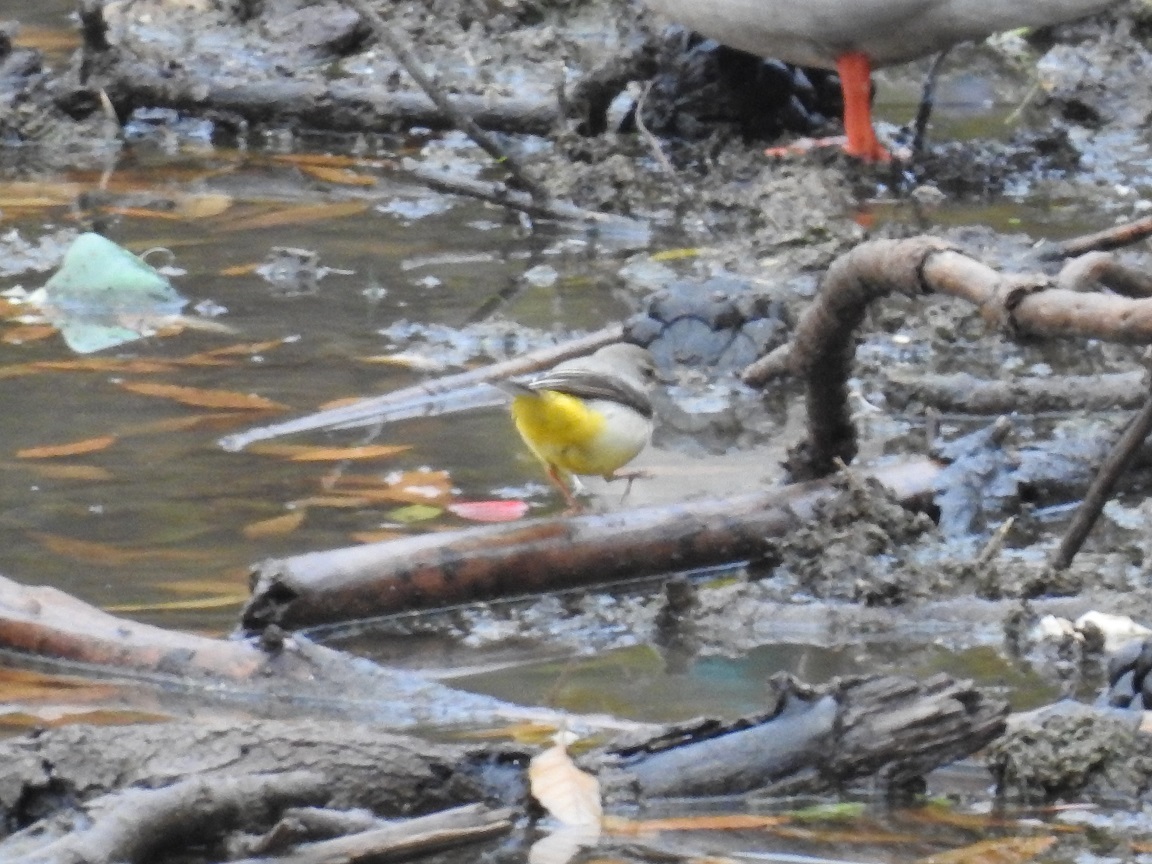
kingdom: Animalia
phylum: Chordata
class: Aves
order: Passeriformes
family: Motacillidae
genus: Motacilla
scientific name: Motacilla cinerea
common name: Grey wagtail
